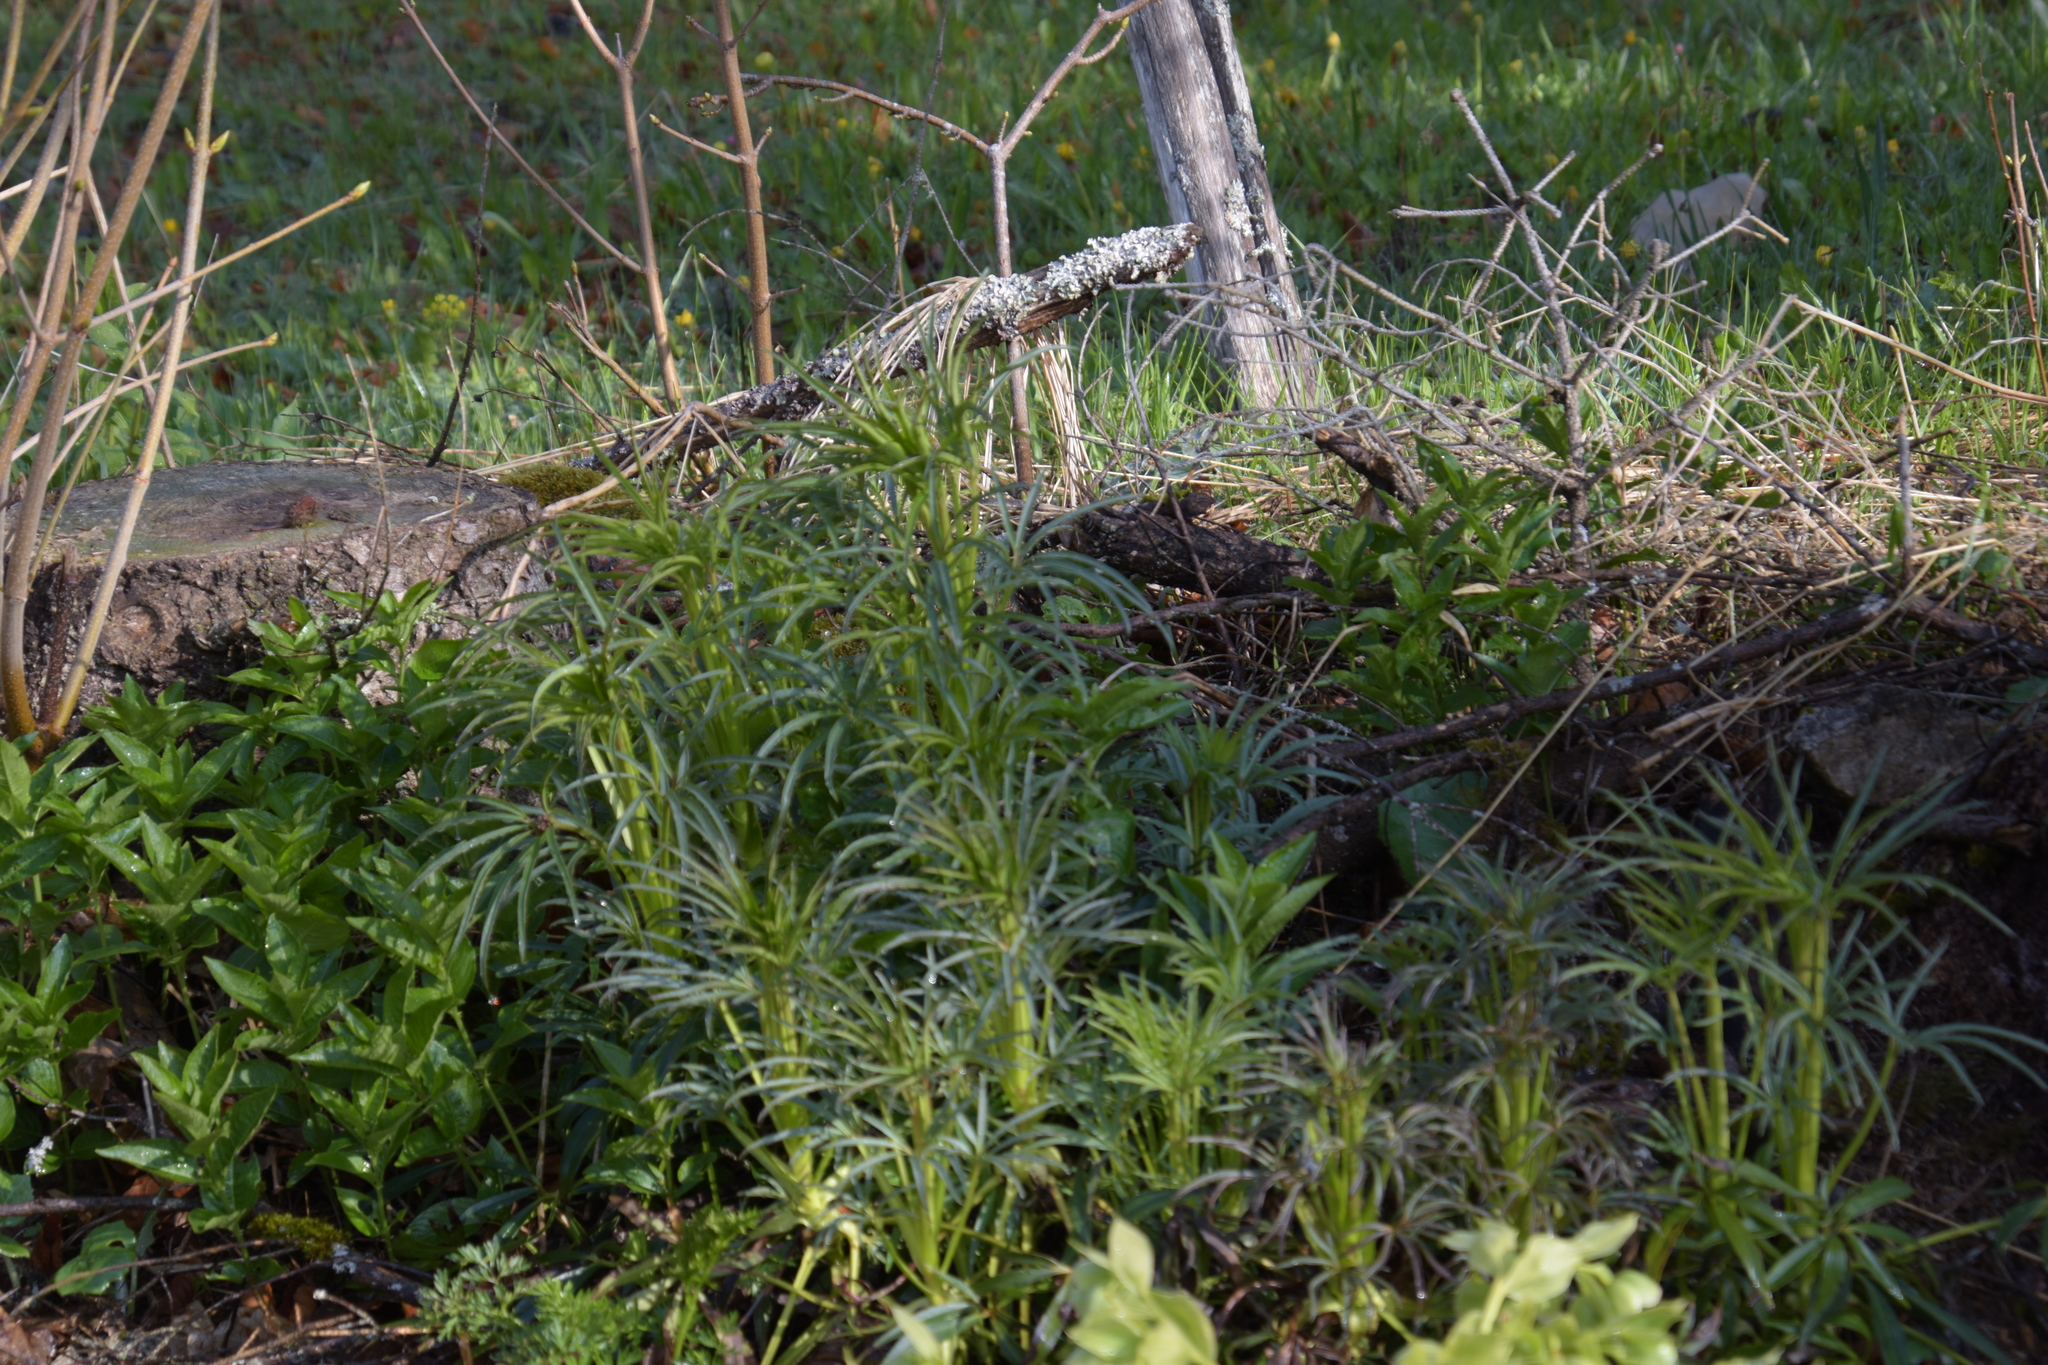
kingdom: Plantae
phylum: Tracheophyta
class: Magnoliopsida
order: Ranunculales
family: Ranunculaceae
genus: Helleborus
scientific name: Helleborus foetidus
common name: Stinking hellebore
